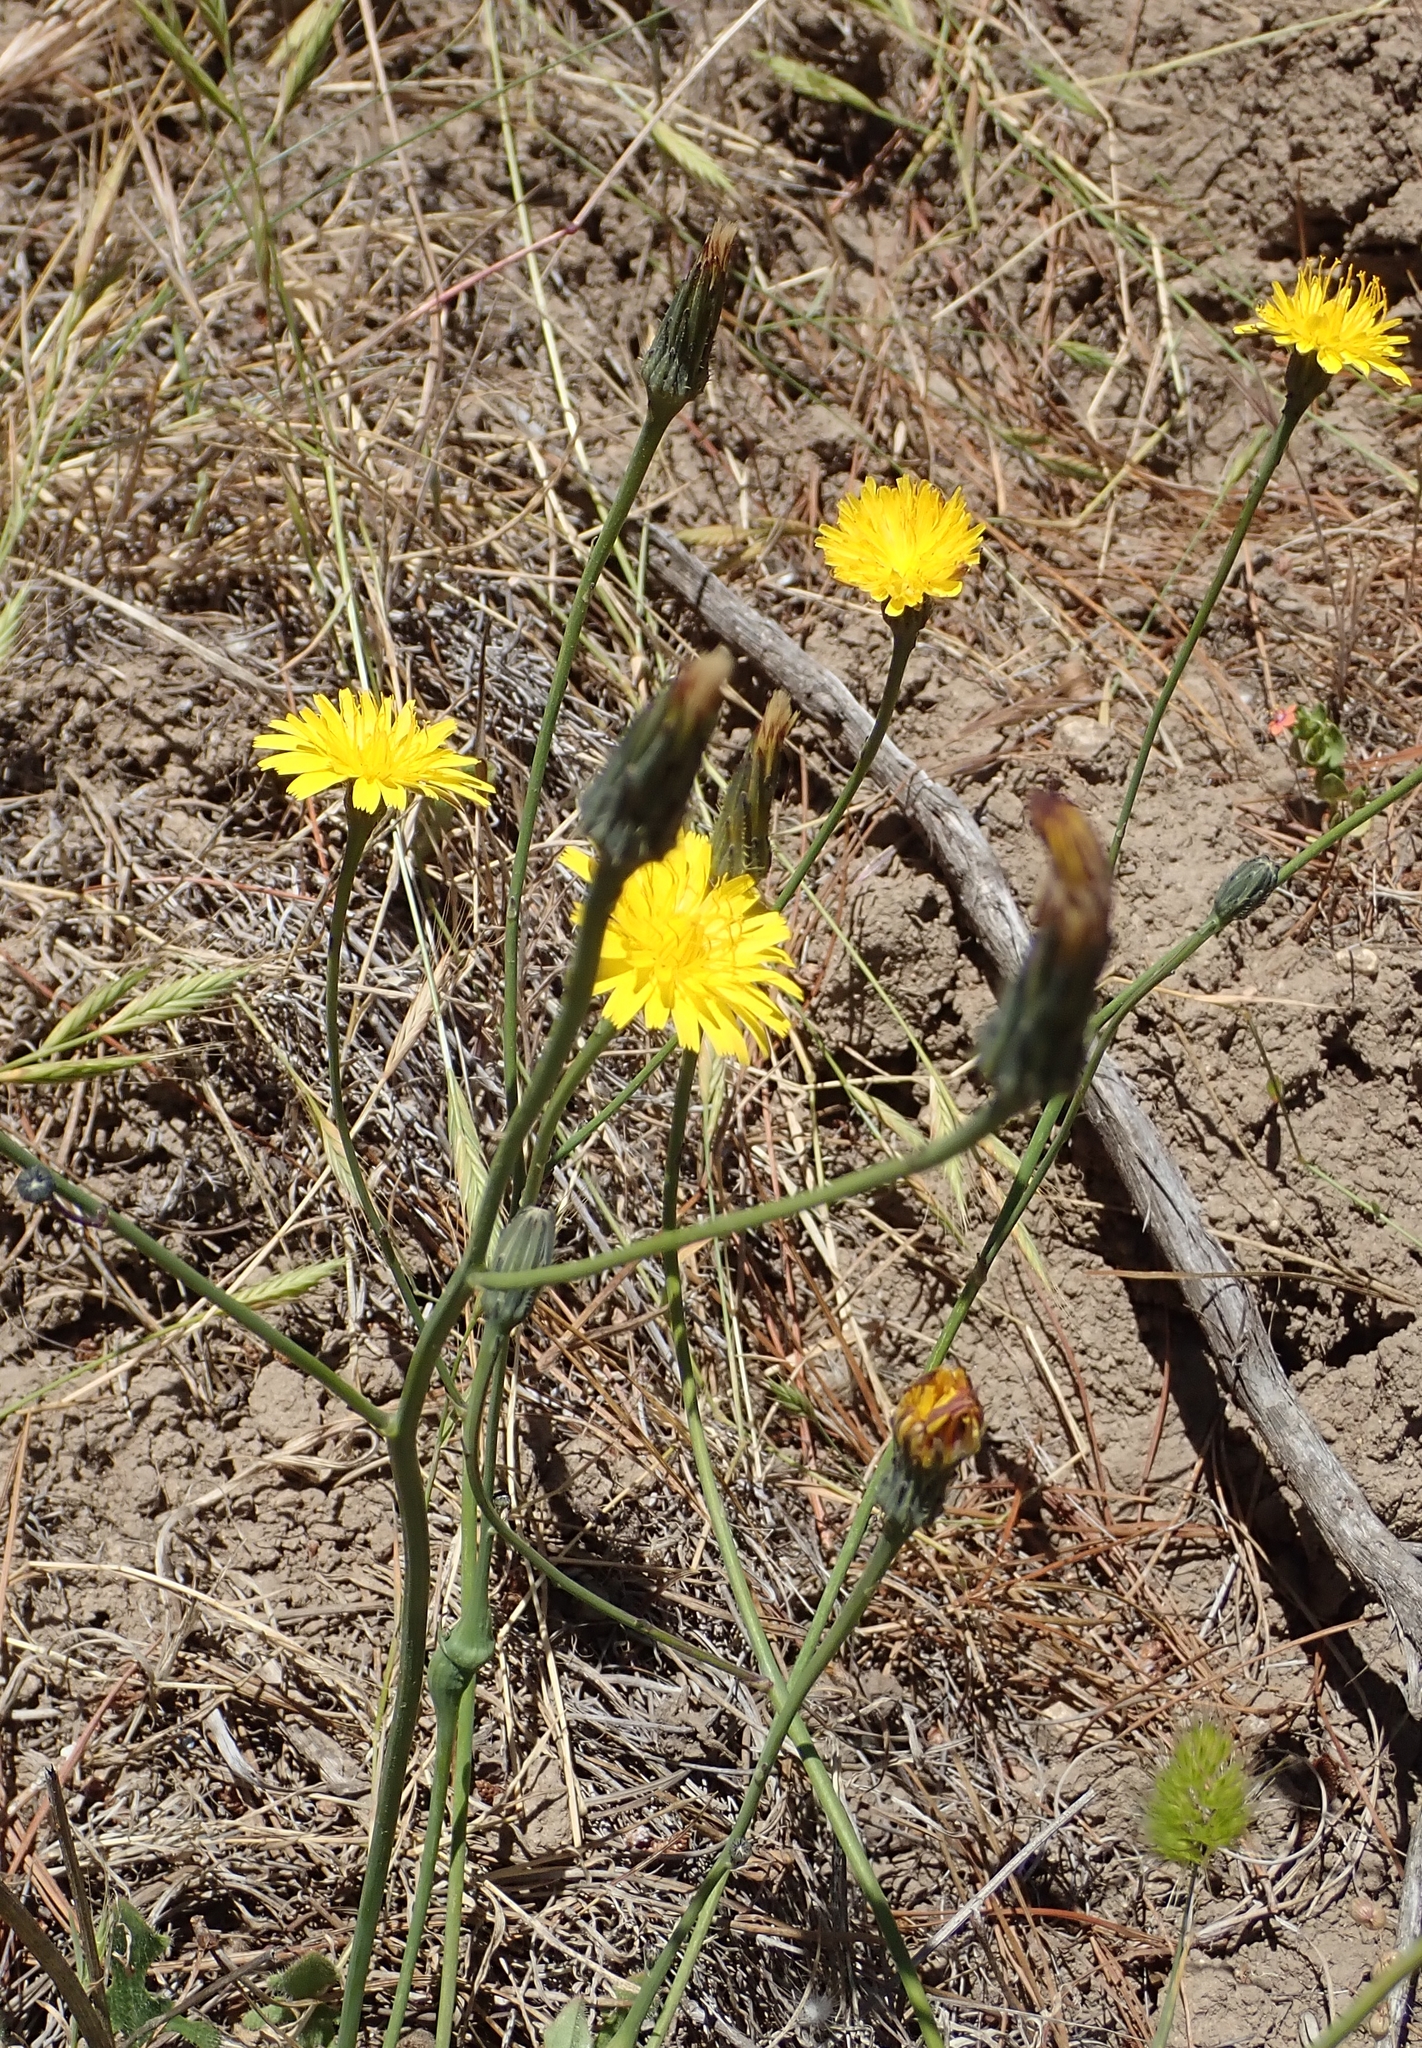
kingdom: Plantae
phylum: Tracheophyta
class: Magnoliopsida
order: Asterales
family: Asteraceae
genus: Hypochaeris
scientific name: Hypochaeris radicata
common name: Flatweed
